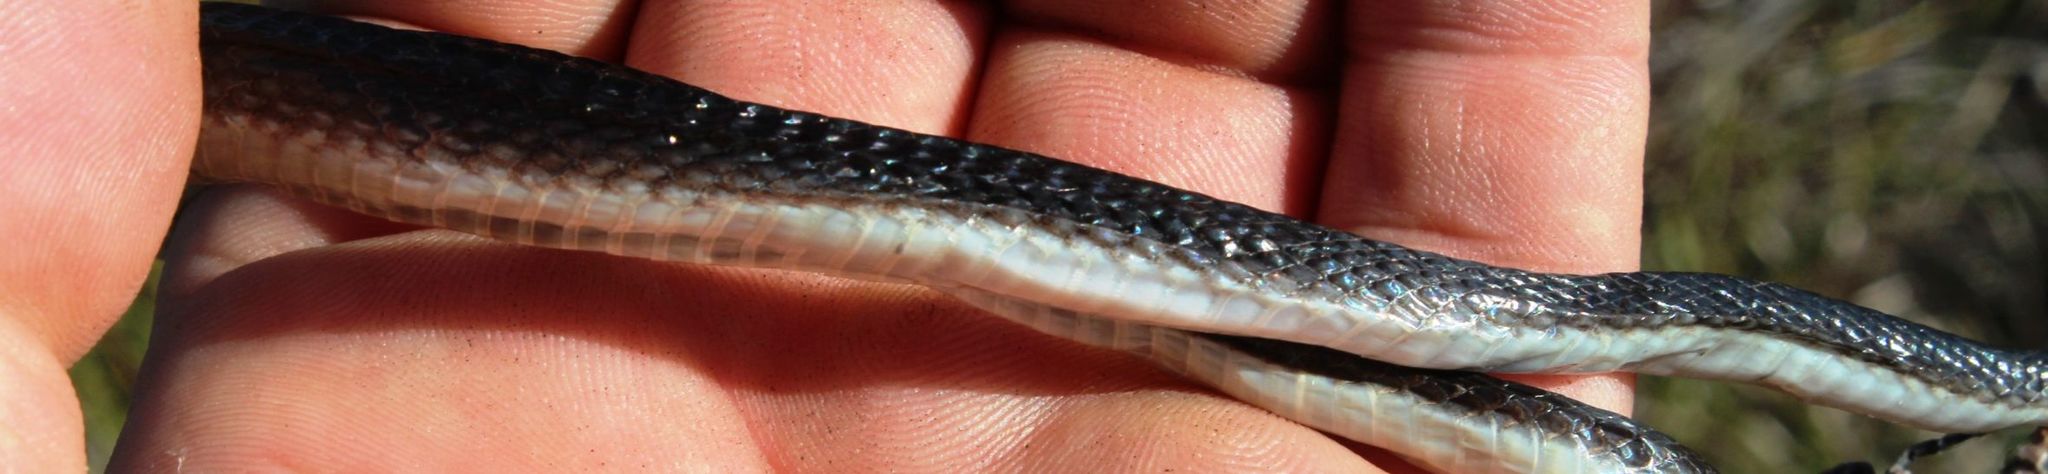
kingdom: Animalia
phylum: Chordata
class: Squamata
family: Lamprophiidae
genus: Lycodonomorphus
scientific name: Lycodonomorphus rufulus
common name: Brown water snake
